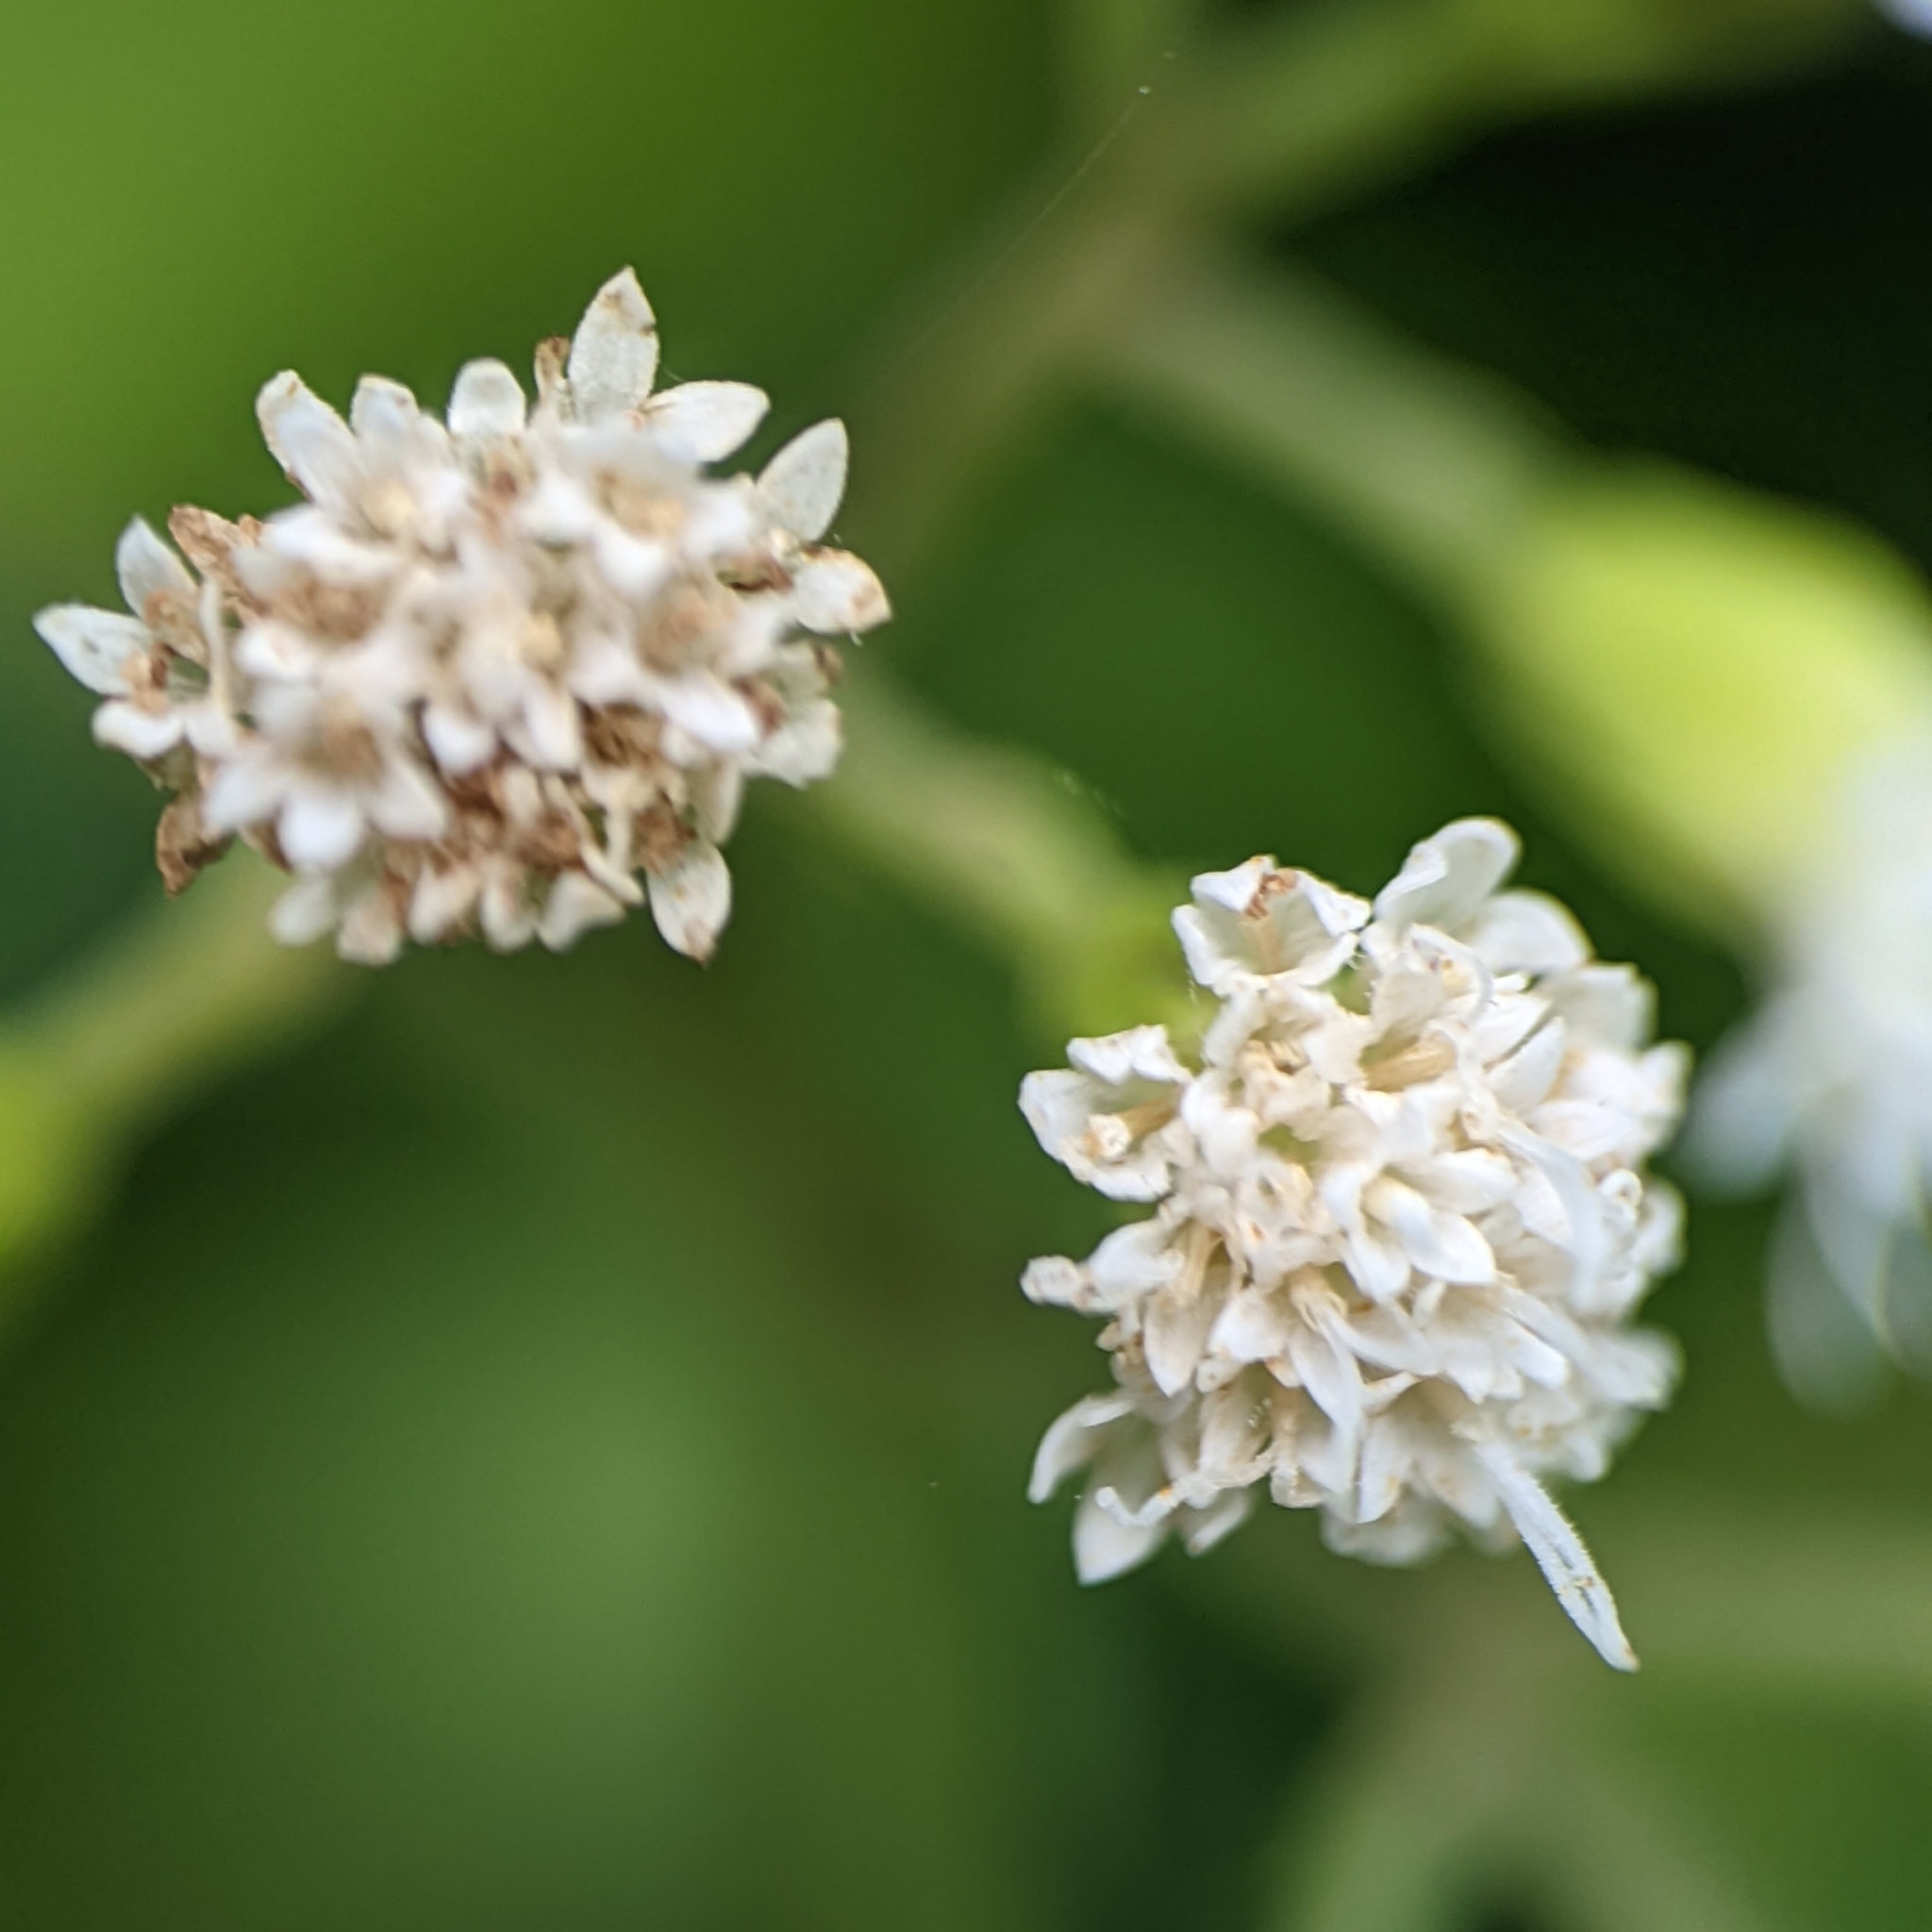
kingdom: Plantae
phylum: Tracheophyta
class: Magnoliopsida
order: Asterales
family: Asteraceae
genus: Ageratina
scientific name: Ageratina altissima
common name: White snakeroot
